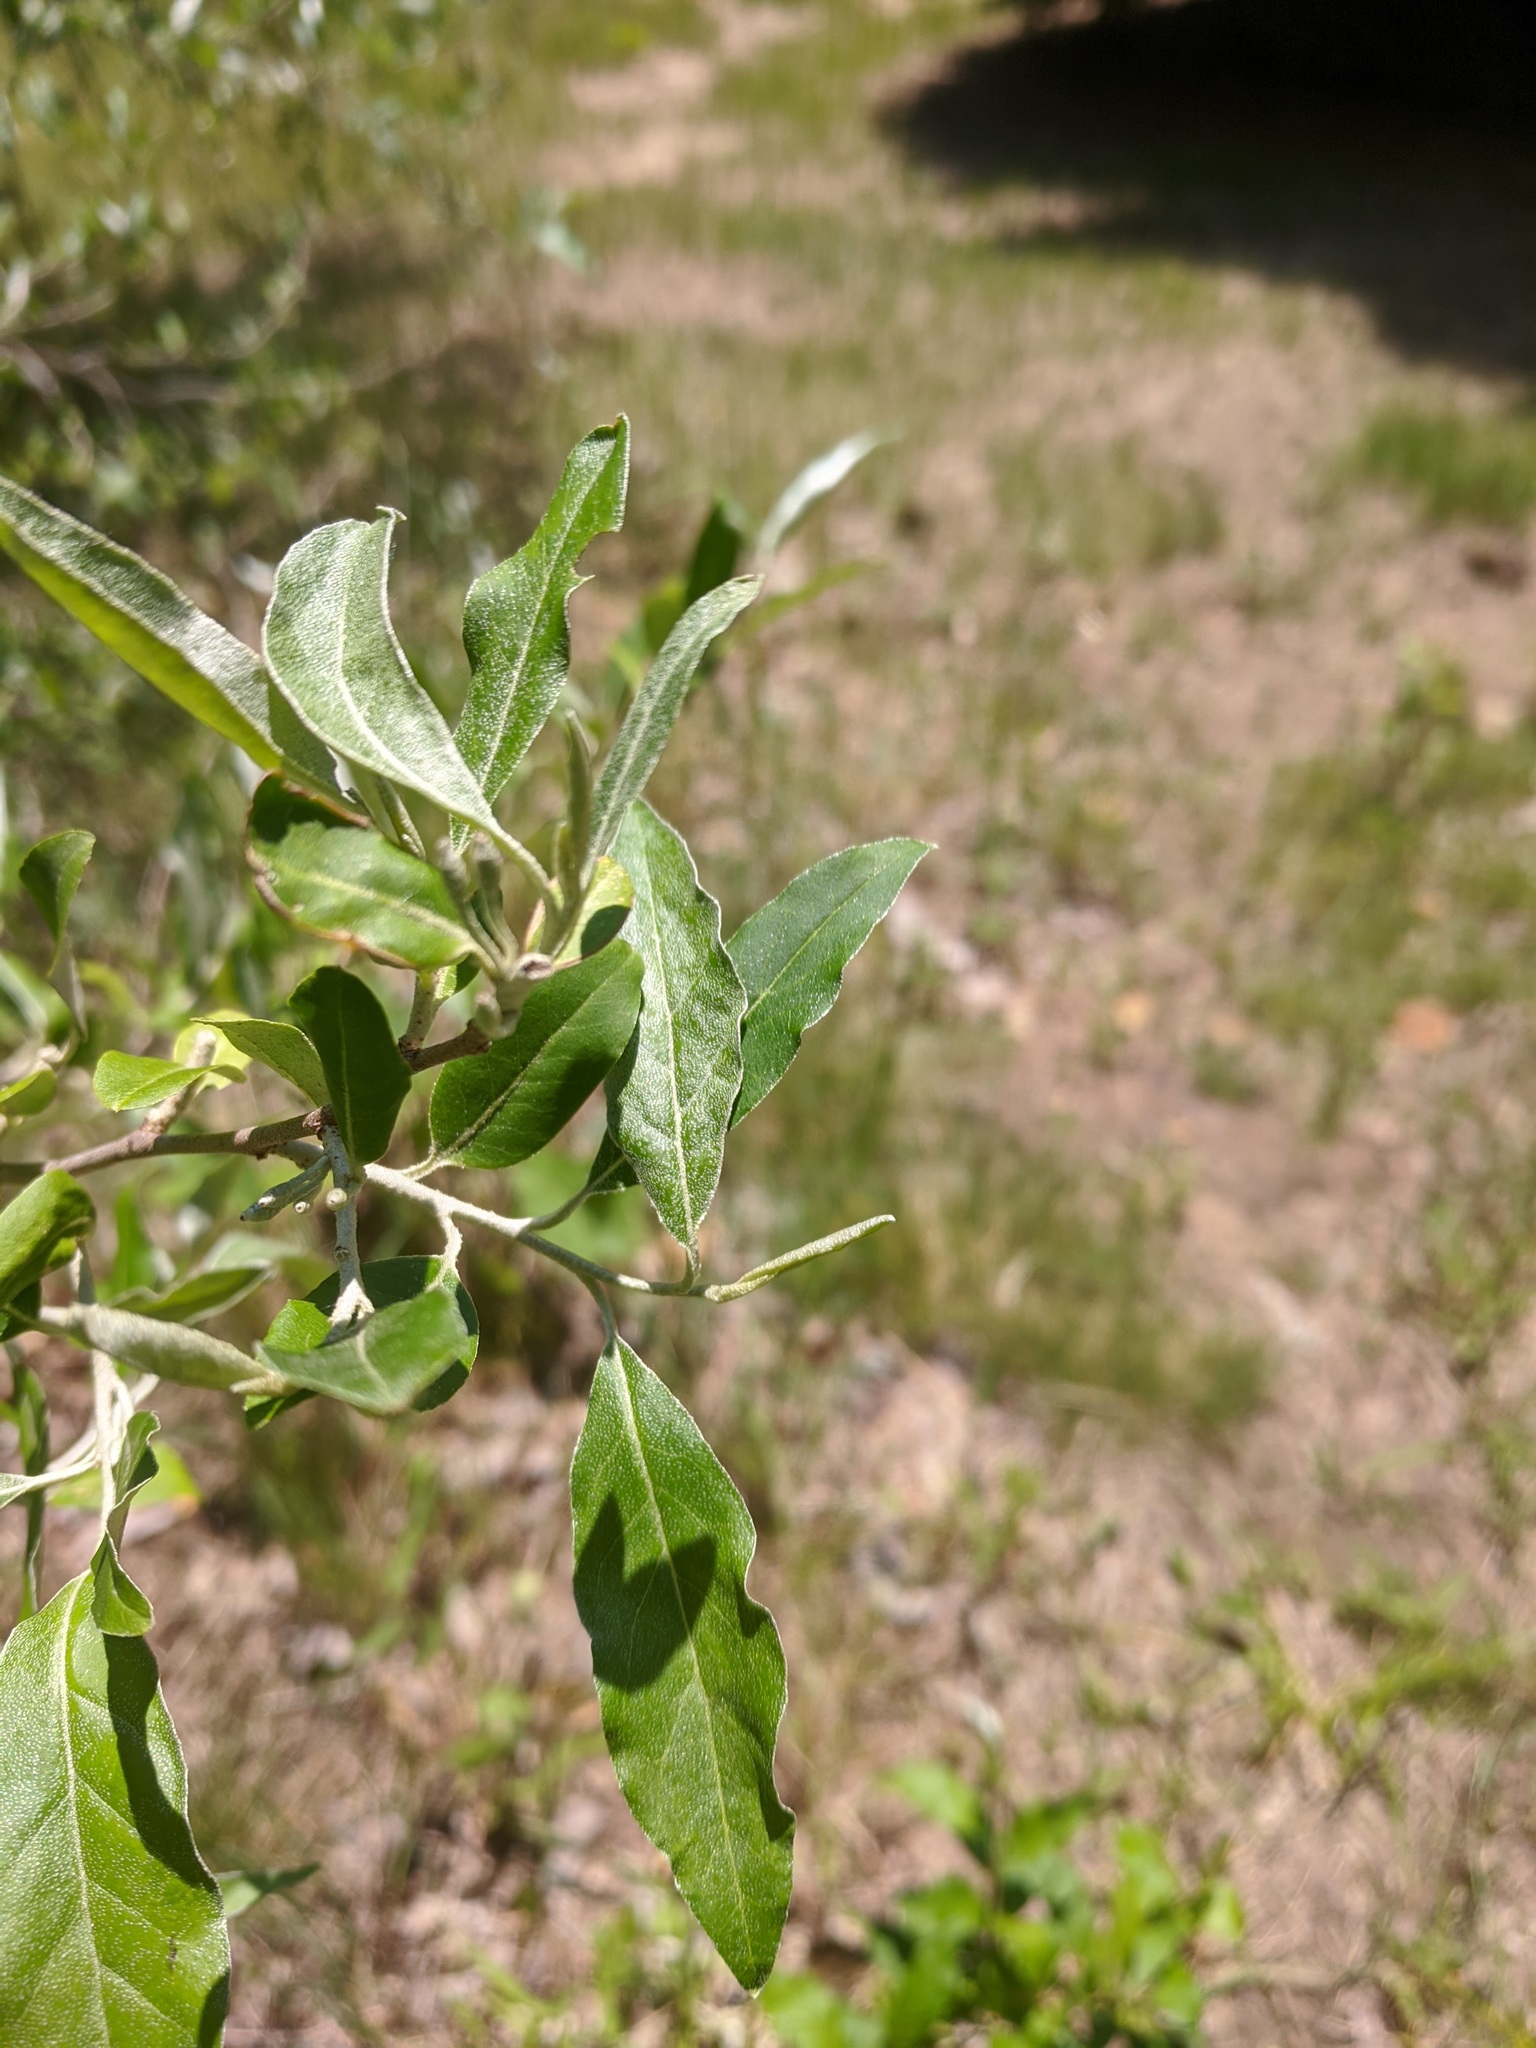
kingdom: Plantae
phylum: Tracheophyta
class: Magnoliopsida
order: Rosales
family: Elaeagnaceae
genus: Elaeagnus
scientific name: Elaeagnus umbellata
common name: Autumn olive
